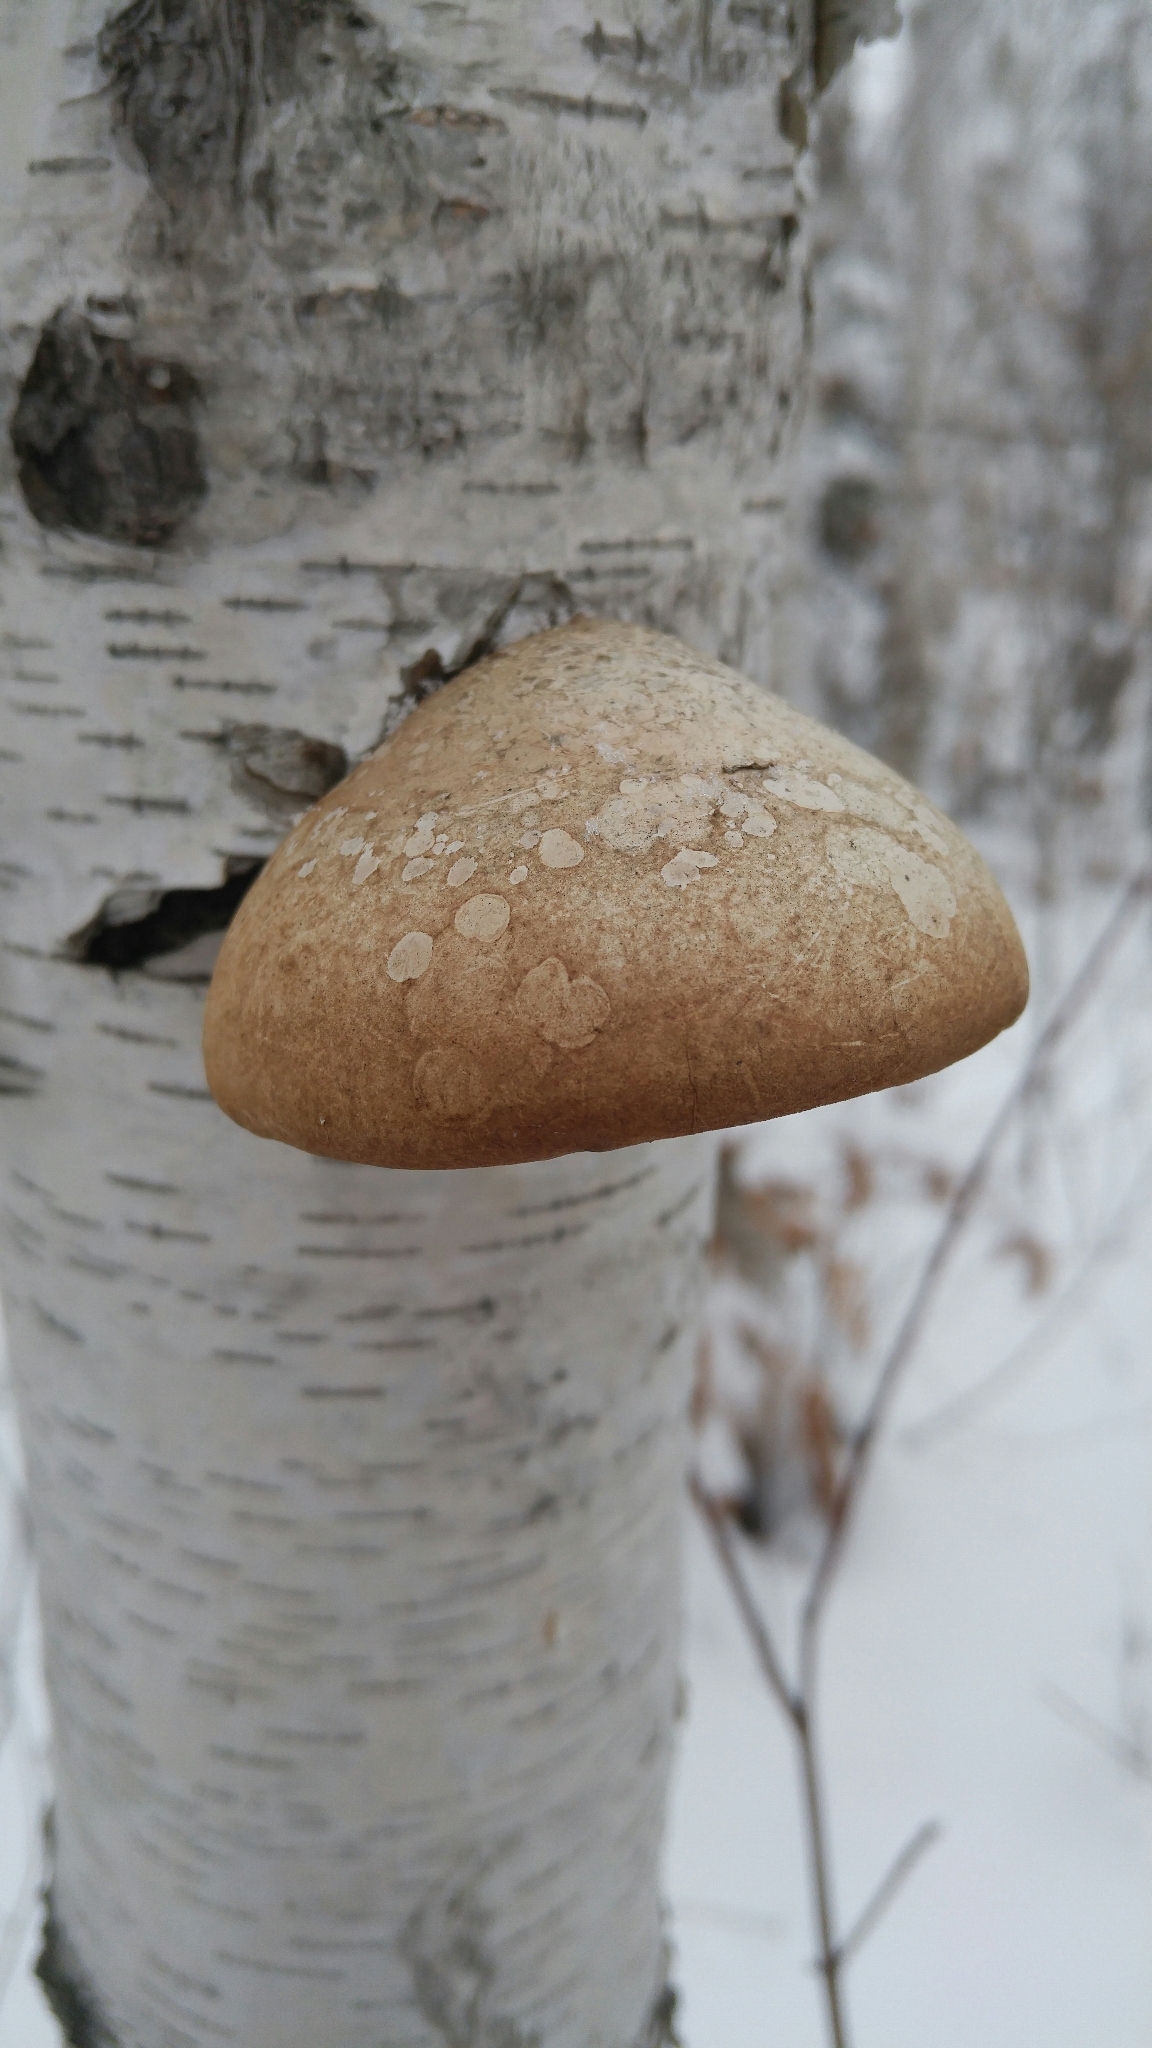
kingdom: Fungi
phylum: Basidiomycota
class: Agaricomycetes
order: Polyporales
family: Fomitopsidaceae
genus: Fomitopsis
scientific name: Fomitopsis betulina
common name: Birch polypore
